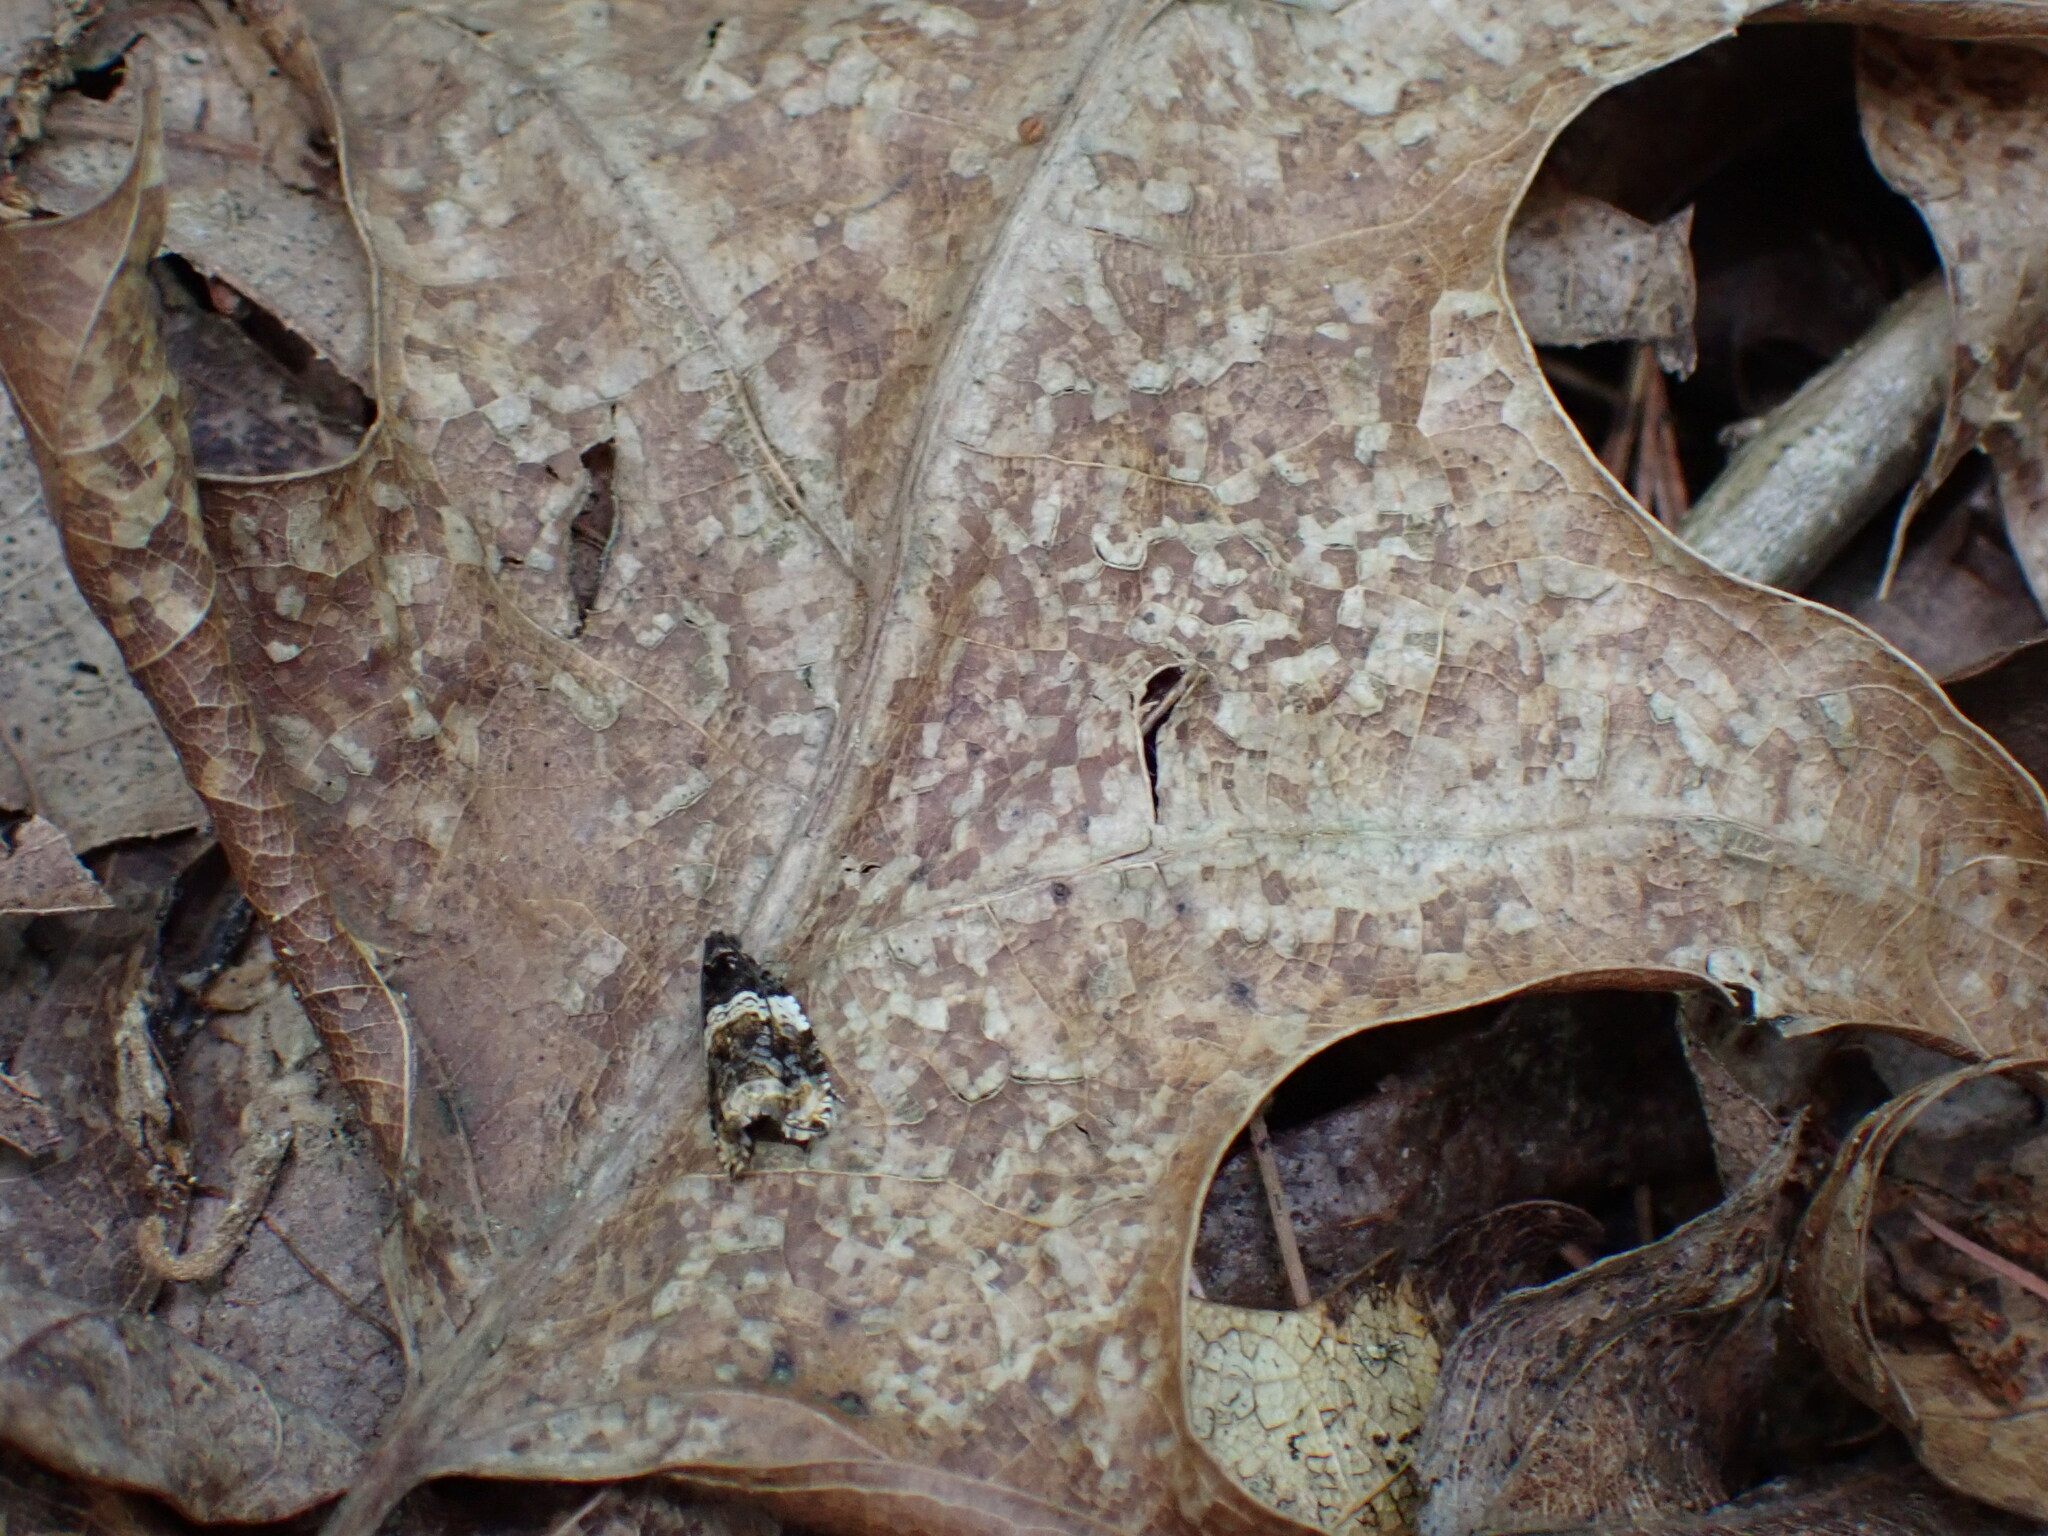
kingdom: Animalia
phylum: Arthropoda
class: Insecta
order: Lepidoptera
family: Tortricidae
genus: Olethreutes
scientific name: Olethreutes fasciatana
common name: Banded olethreutes moth
